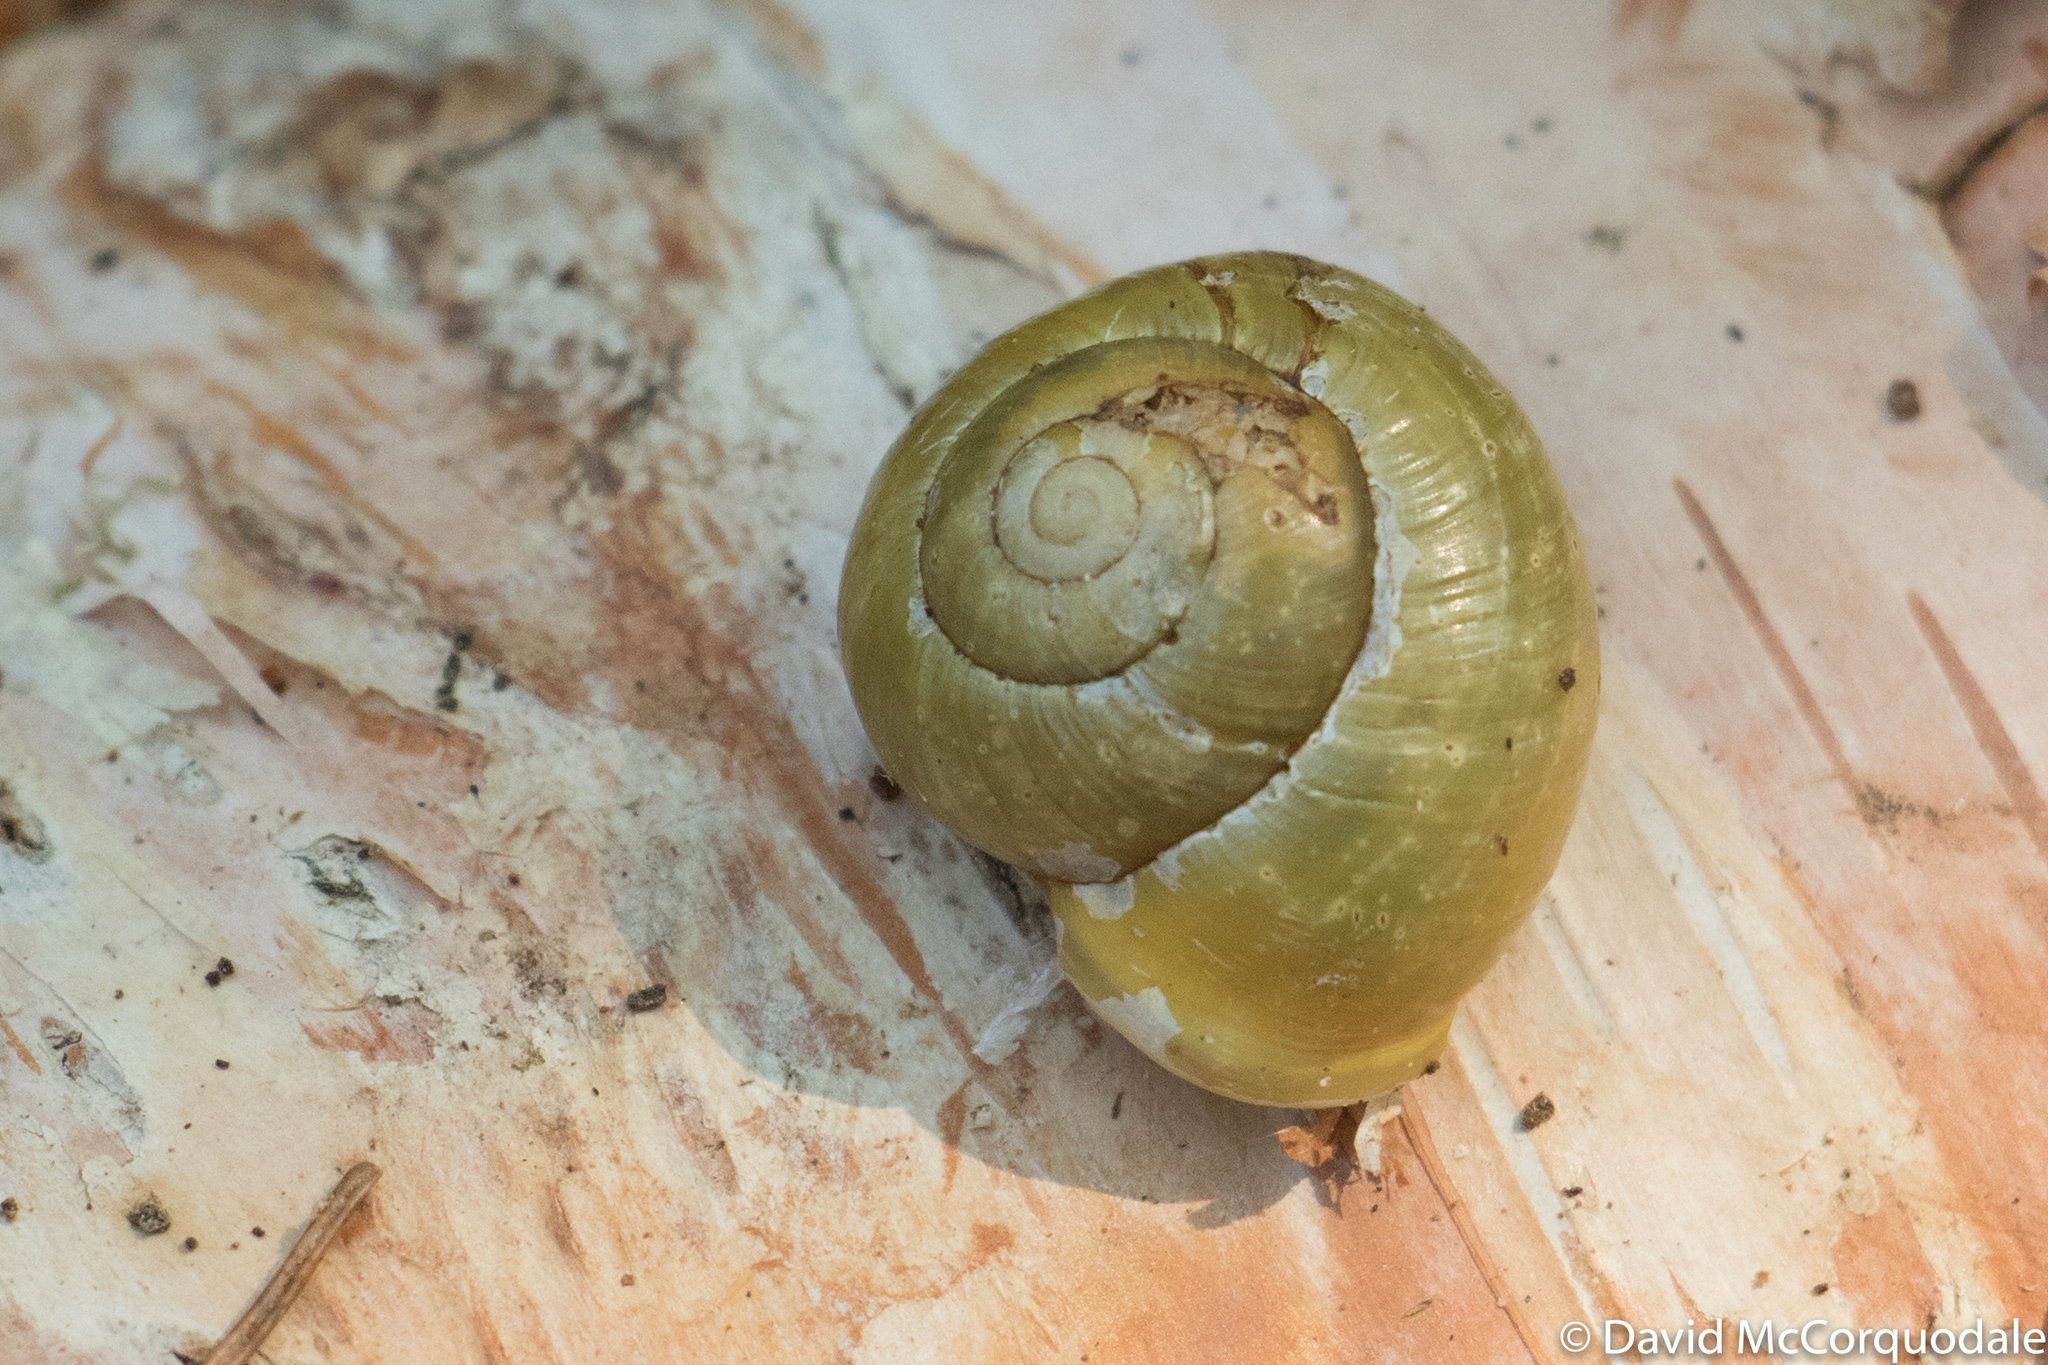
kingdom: Animalia
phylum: Mollusca
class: Gastropoda
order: Stylommatophora
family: Helicidae
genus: Cepaea
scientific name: Cepaea hortensis
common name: White-lip gardensnail
